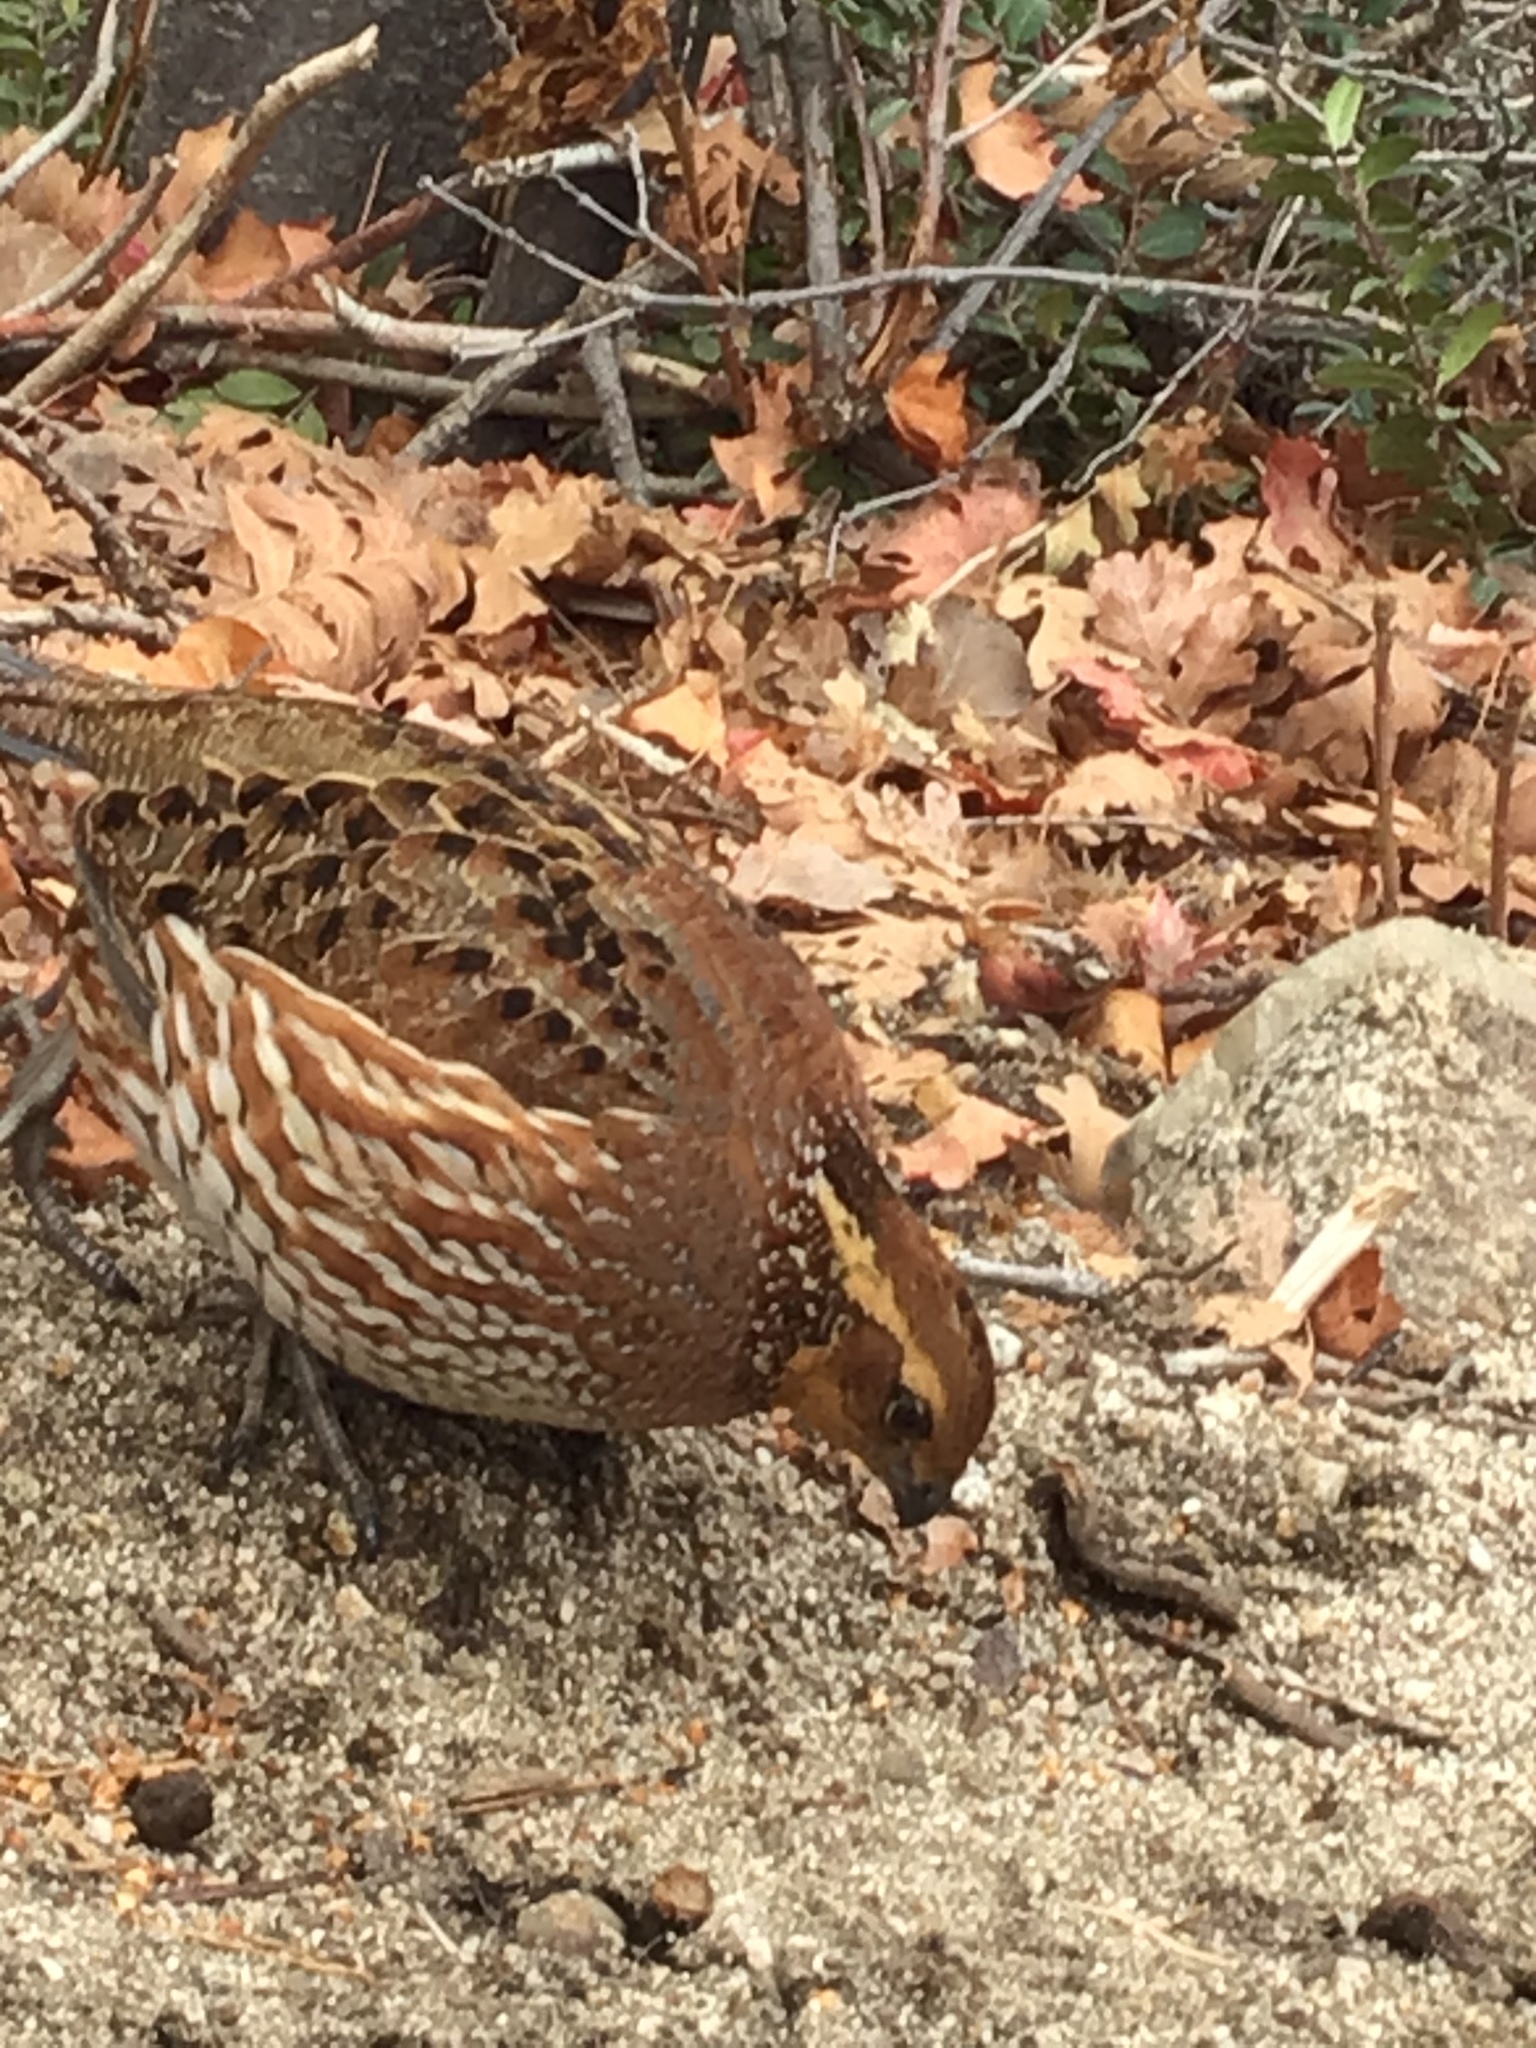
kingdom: Animalia
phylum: Chordata
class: Aves
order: Galliformes
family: Odontophoridae
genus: Colinus
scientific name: Colinus virginianus
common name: Northern bobwhite
